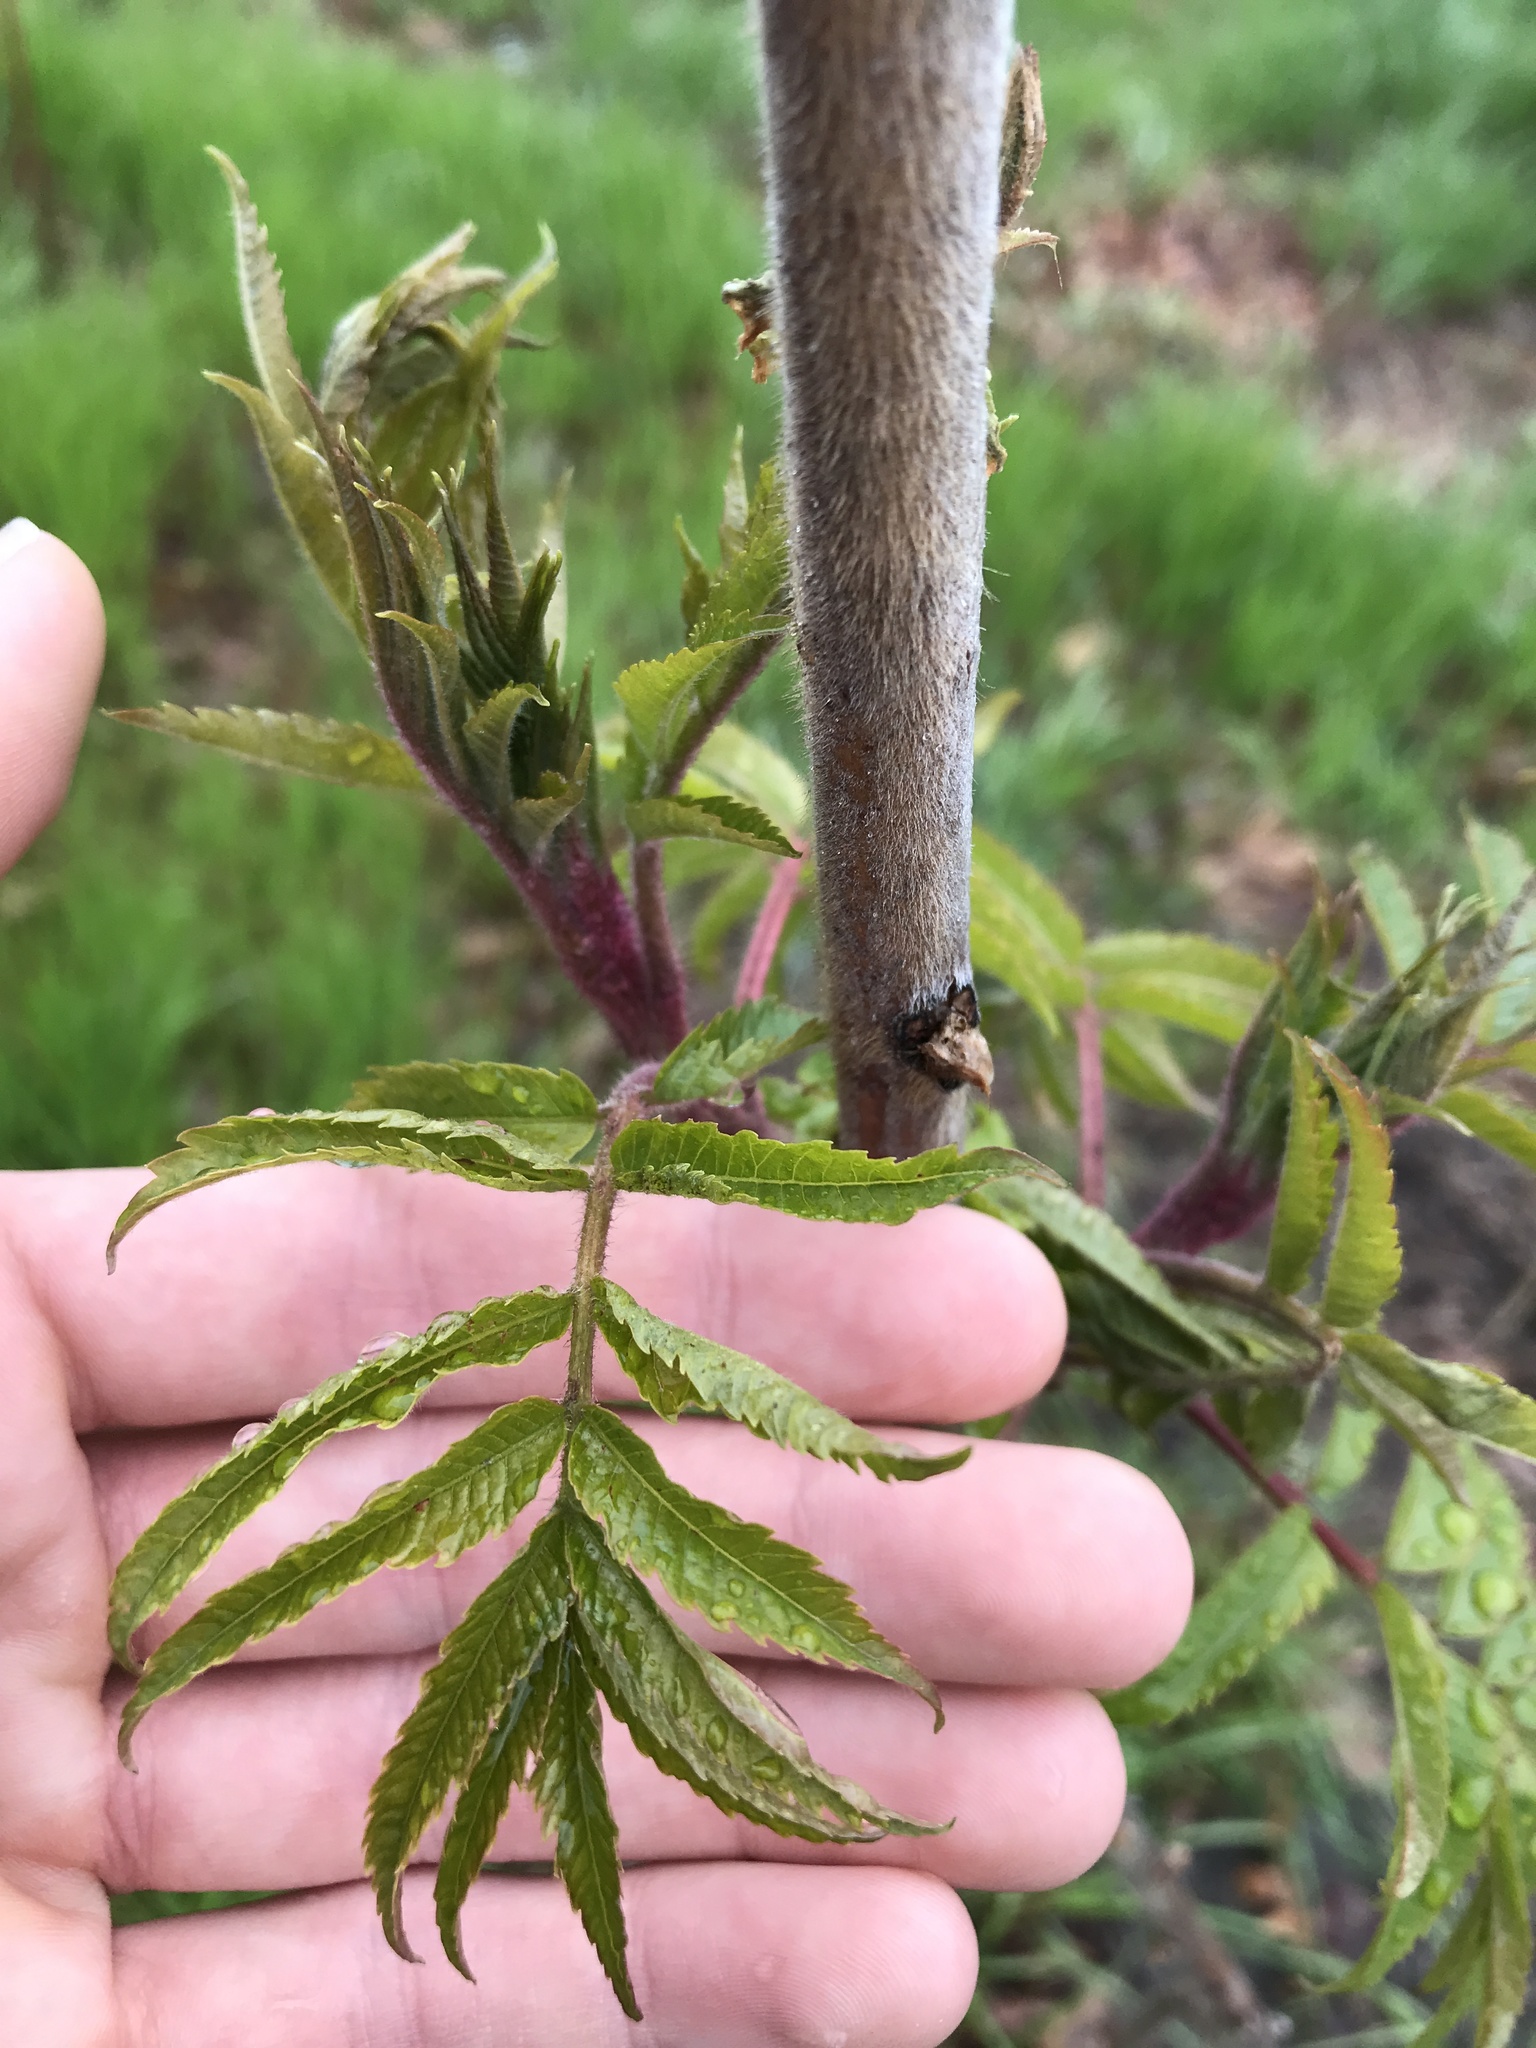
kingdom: Plantae
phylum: Tracheophyta
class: Magnoliopsida
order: Sapindales
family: Anacardiaceae
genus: Rhus
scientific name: Rhus typhina
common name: Staghorn sumac
